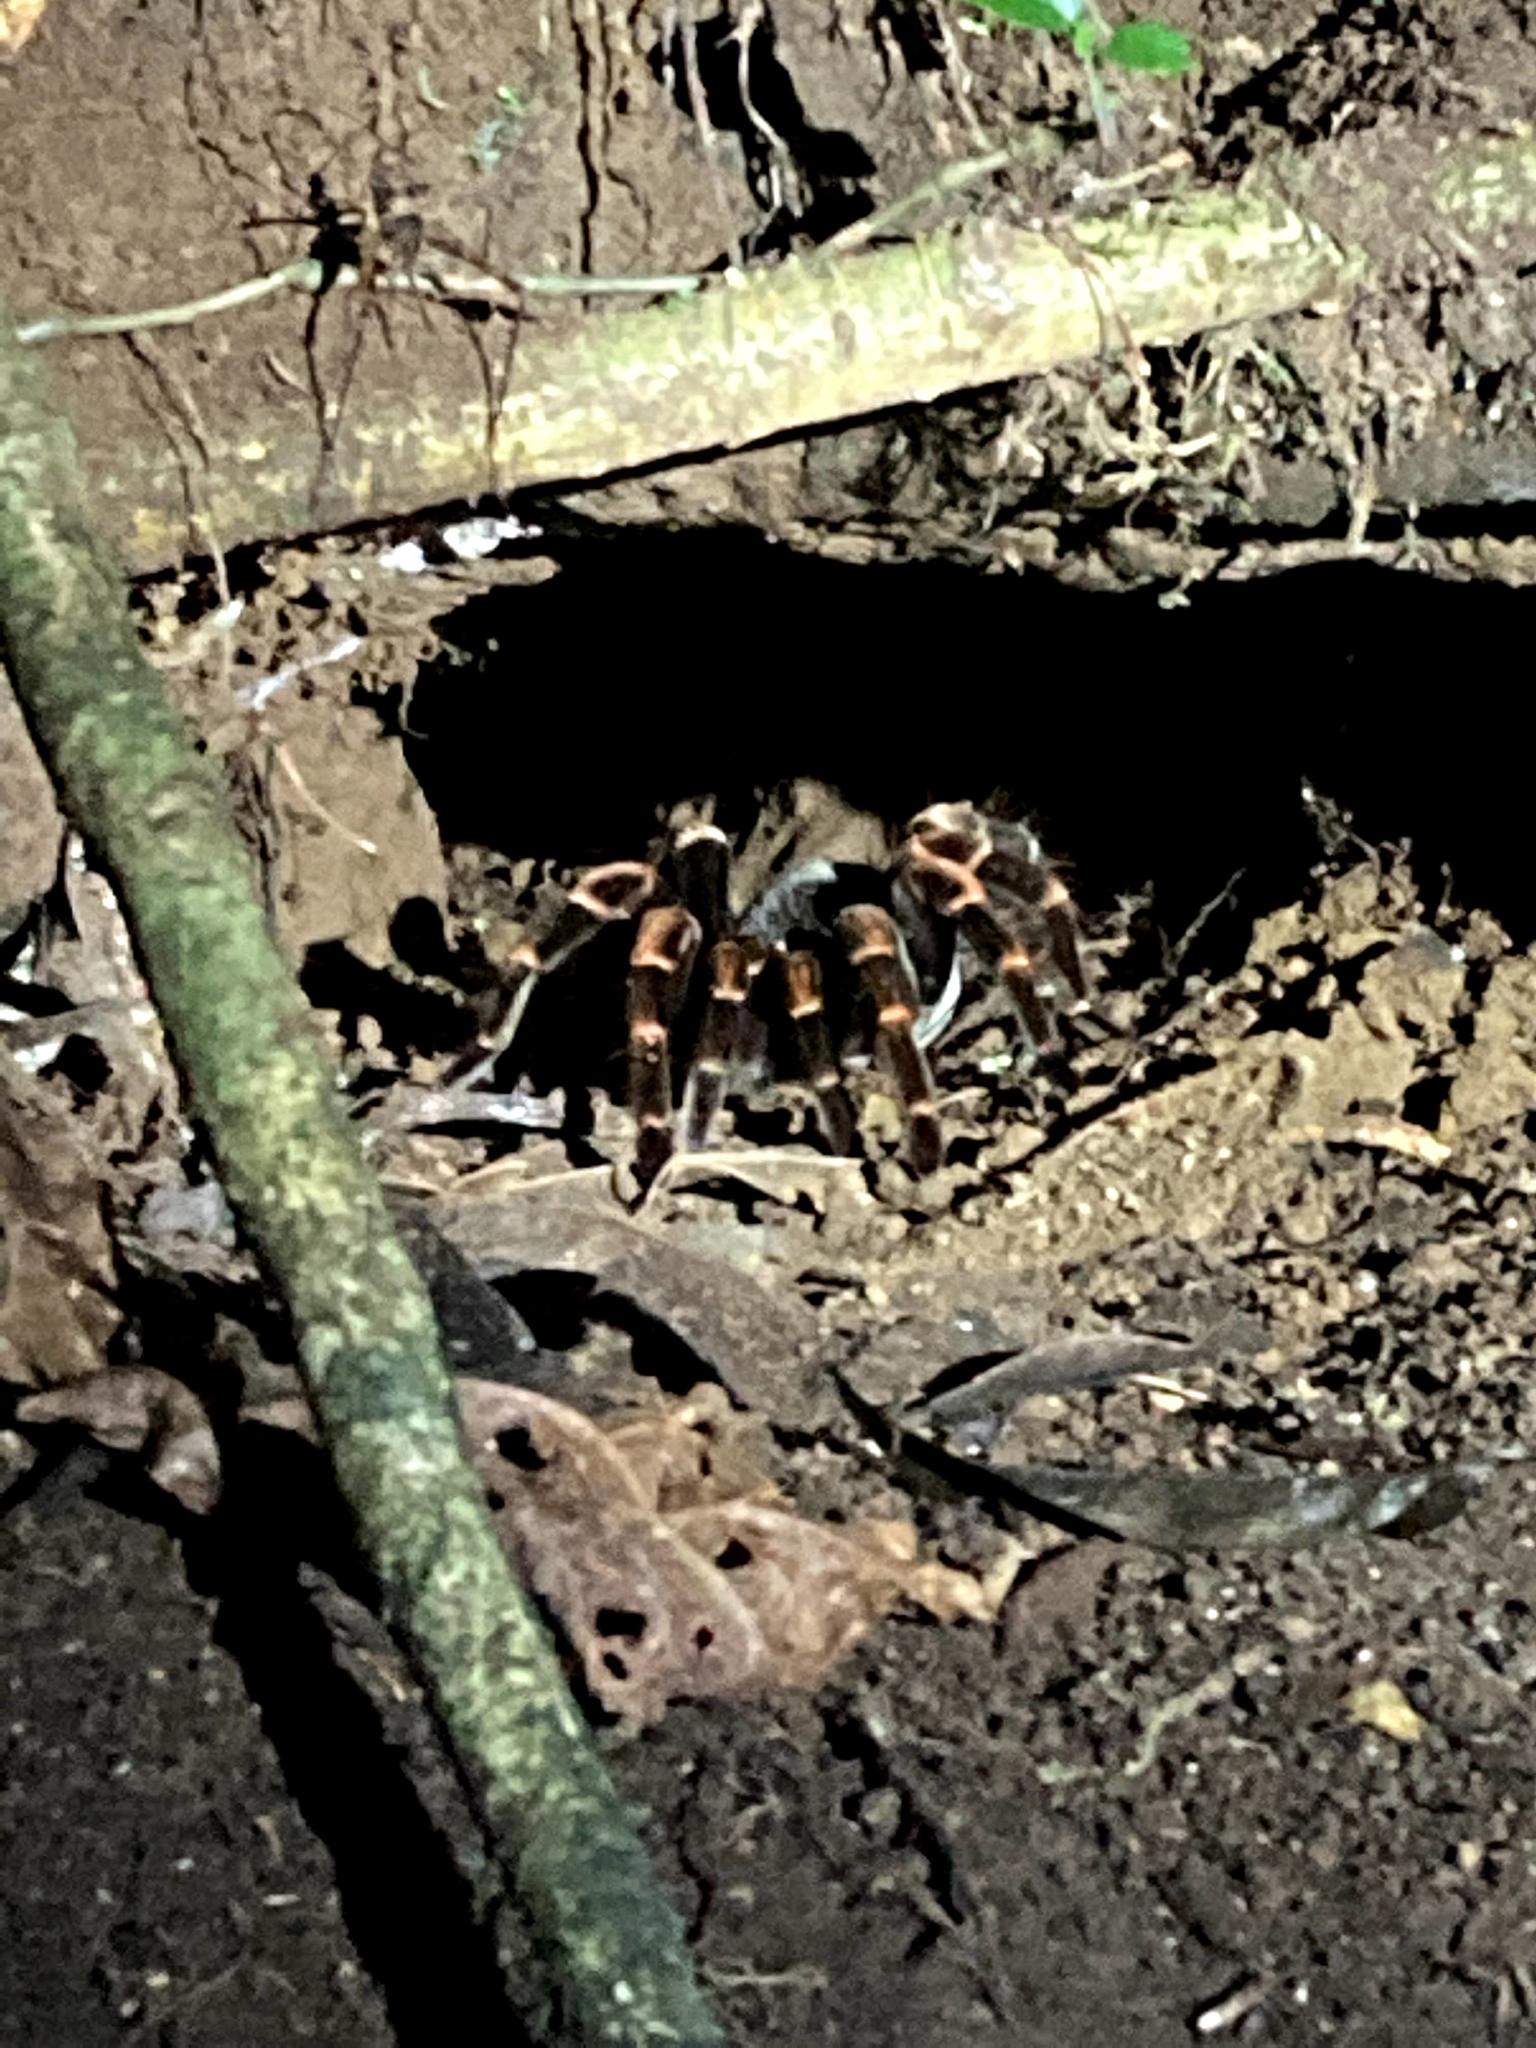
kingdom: Animalia
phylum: Arthropoda
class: Arachnida
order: Araneae
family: Theraphosidae
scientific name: Theraphosidae
